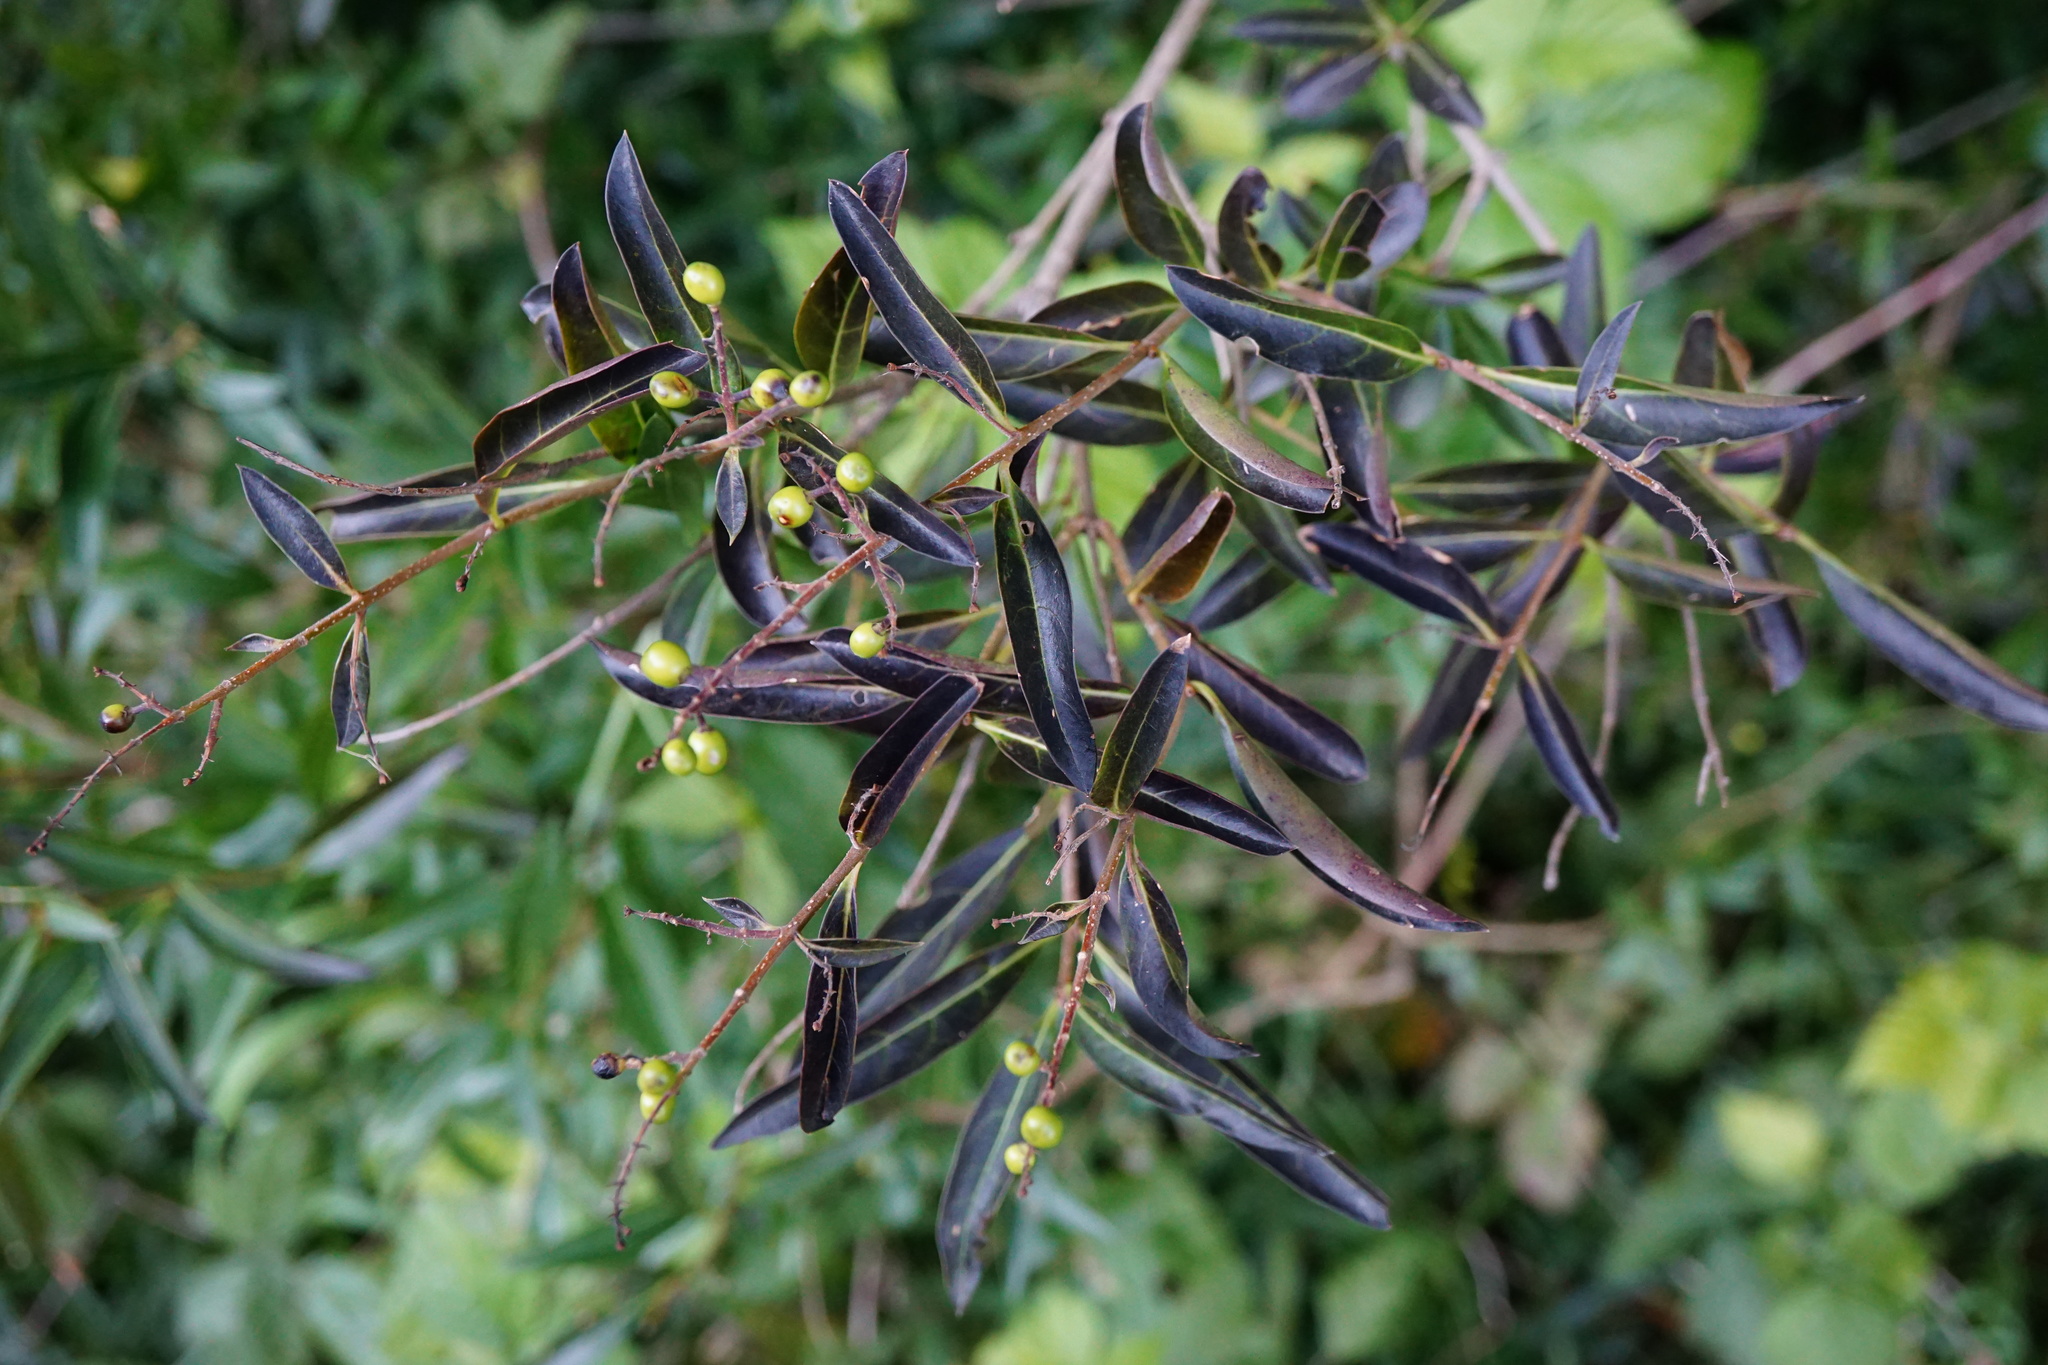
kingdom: Plantae
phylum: Tracheophyta
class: Magnoliopsida
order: Lamiales
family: Oleaceae
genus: Ligustrum
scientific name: Ligustrum vulgare
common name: Wild privet
